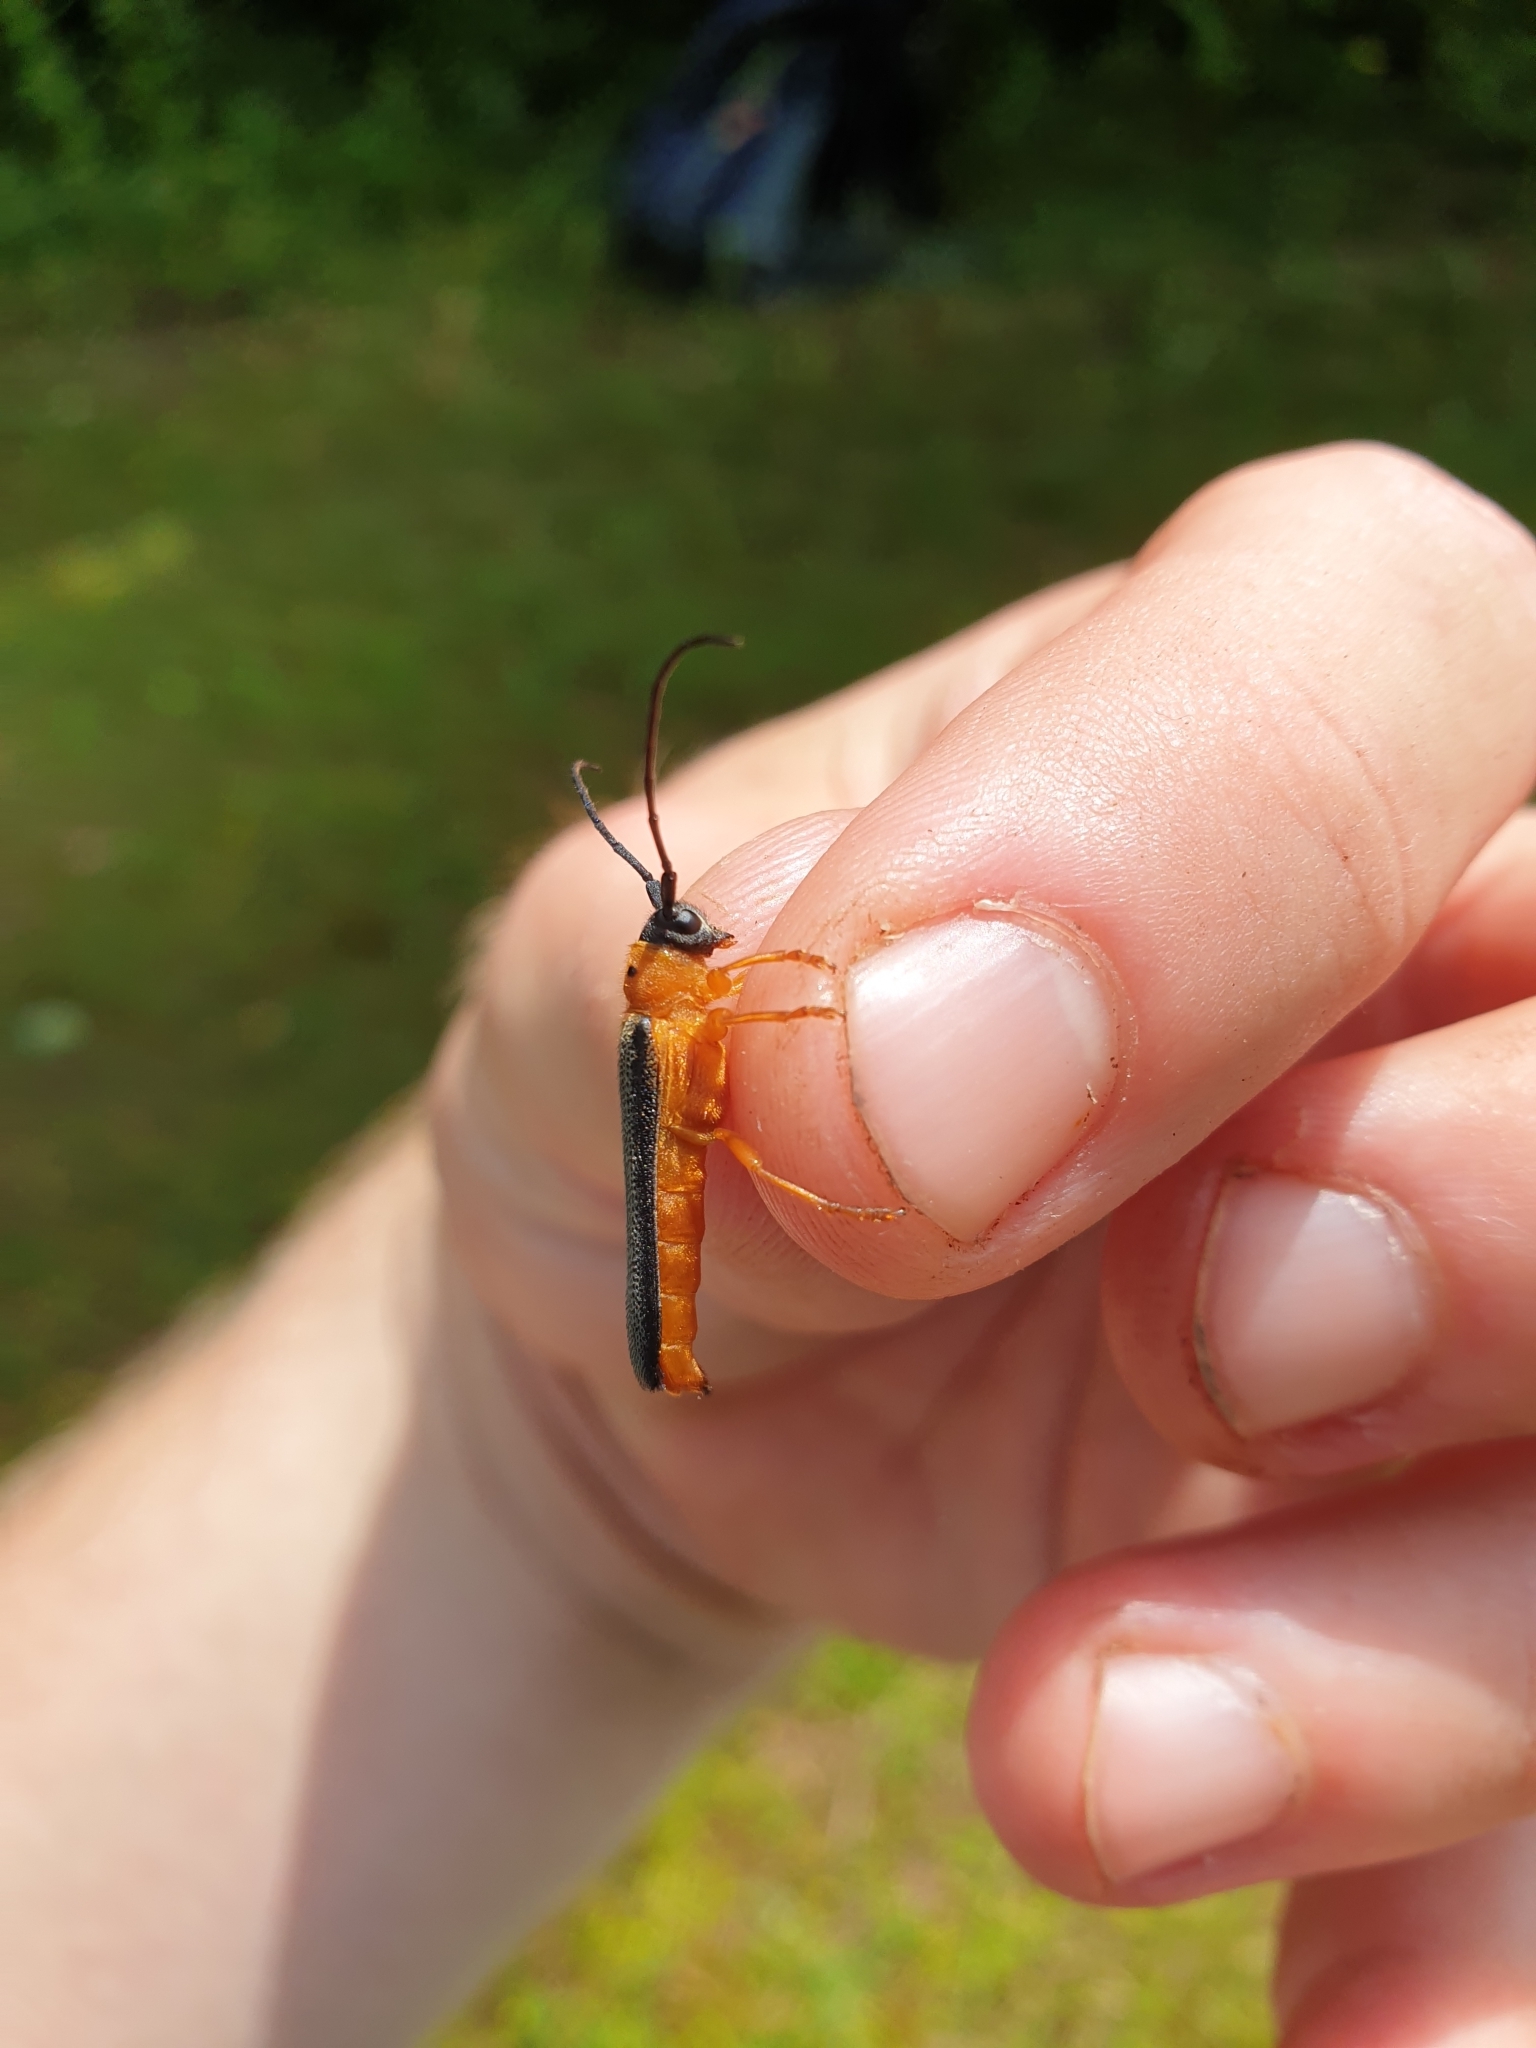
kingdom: Animalia
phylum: Arthropoda
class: Insecta
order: Coleoptera
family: Cerambycidae
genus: Oberea
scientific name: Oberea oculata
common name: Eyed longhorn beetle
